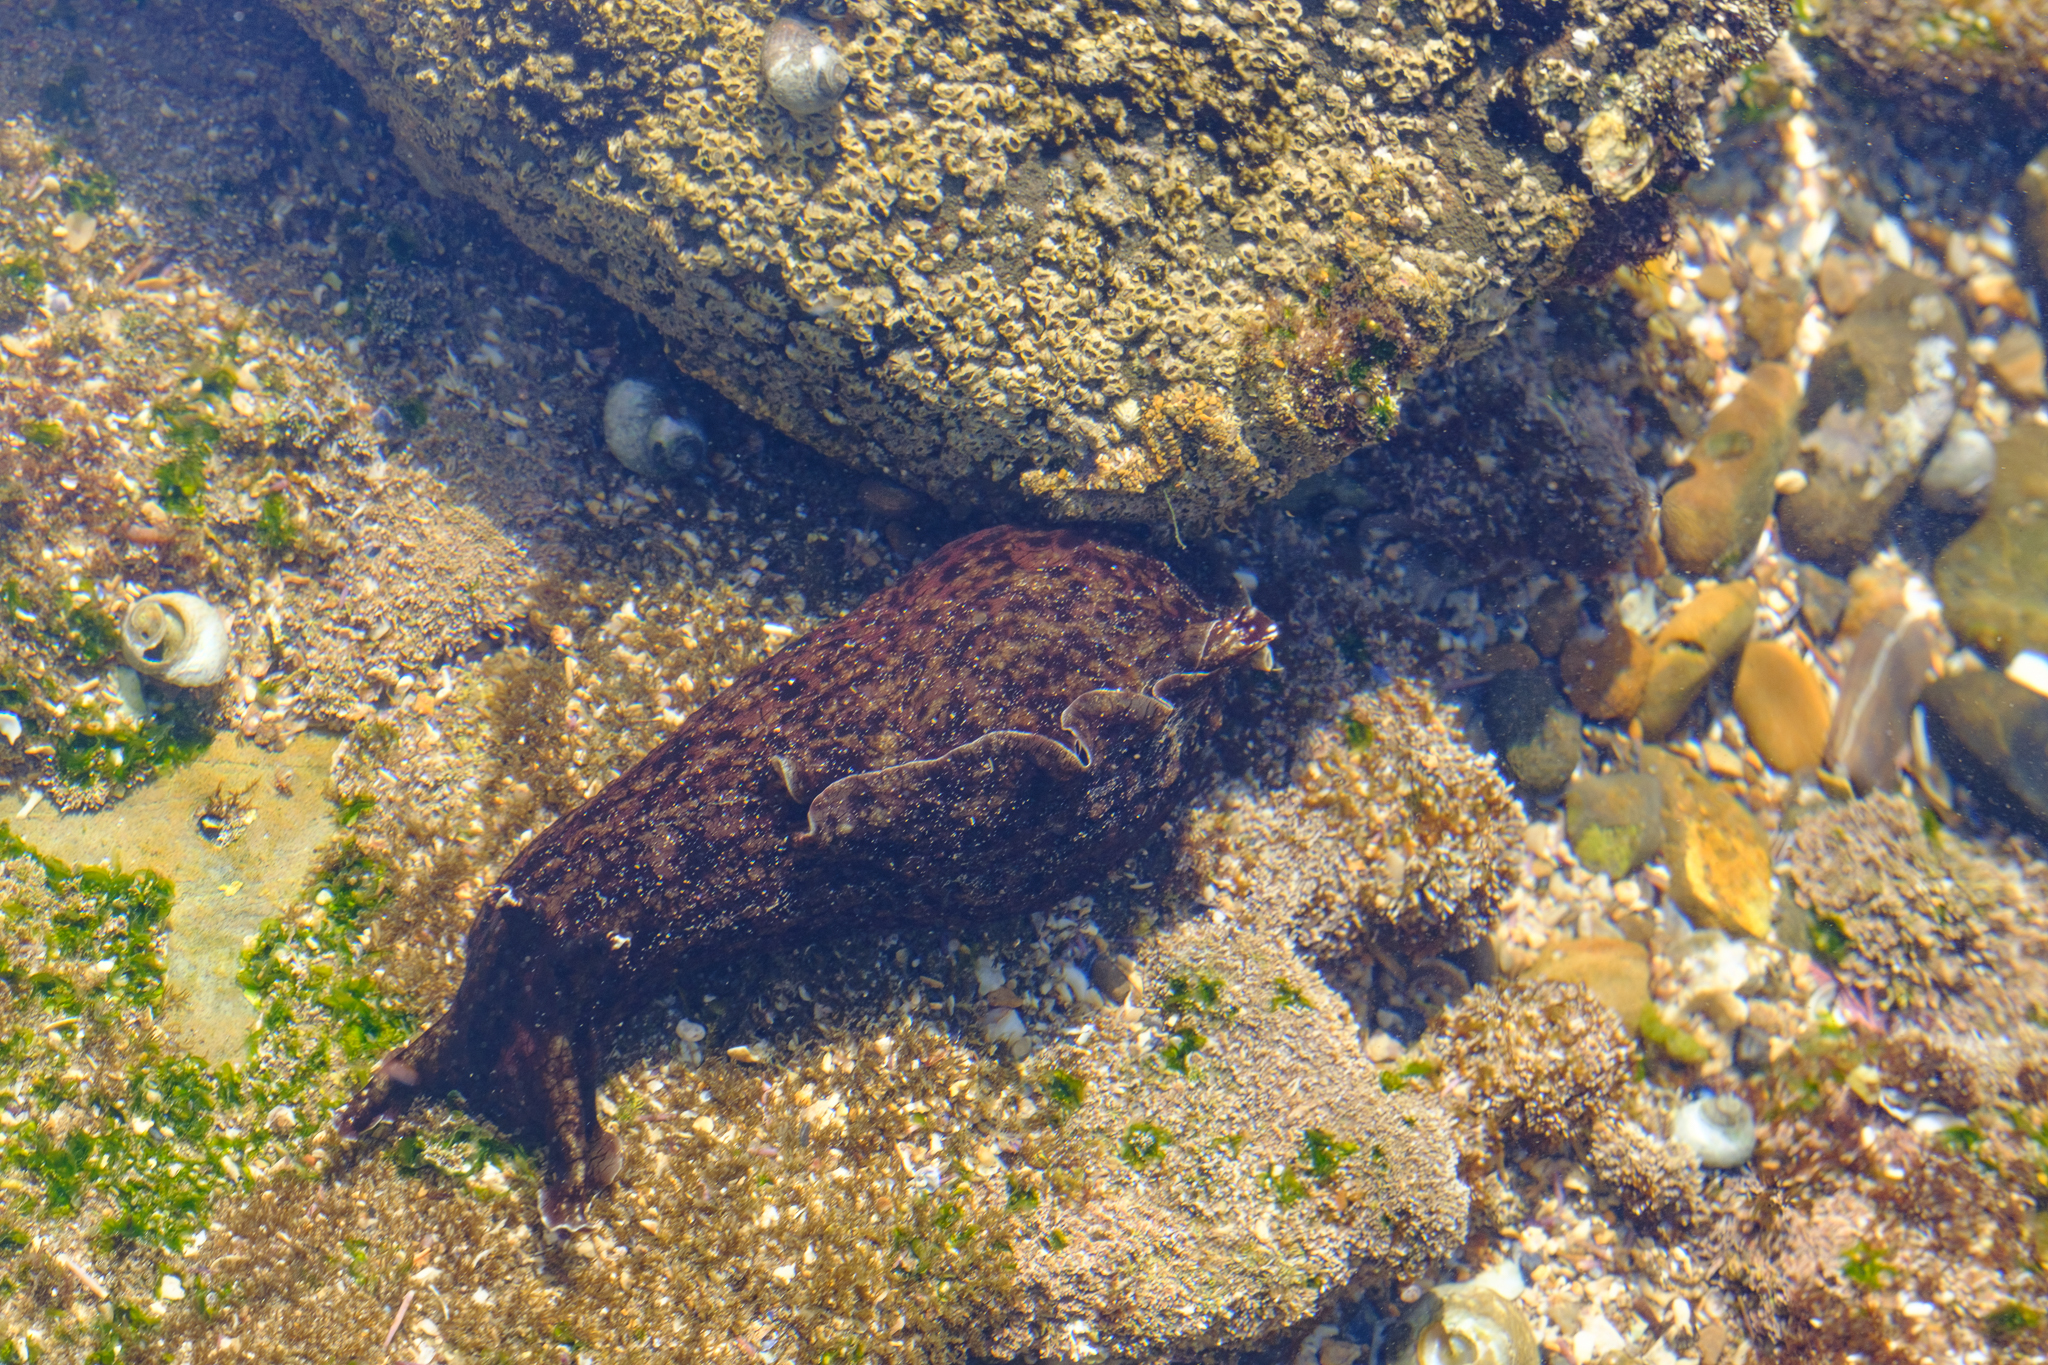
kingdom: Animalia
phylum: Mollusca
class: Gastropoda
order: Aplysiida
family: Aplysiidae
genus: Aplysia
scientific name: Aplysia californica
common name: California seahare
